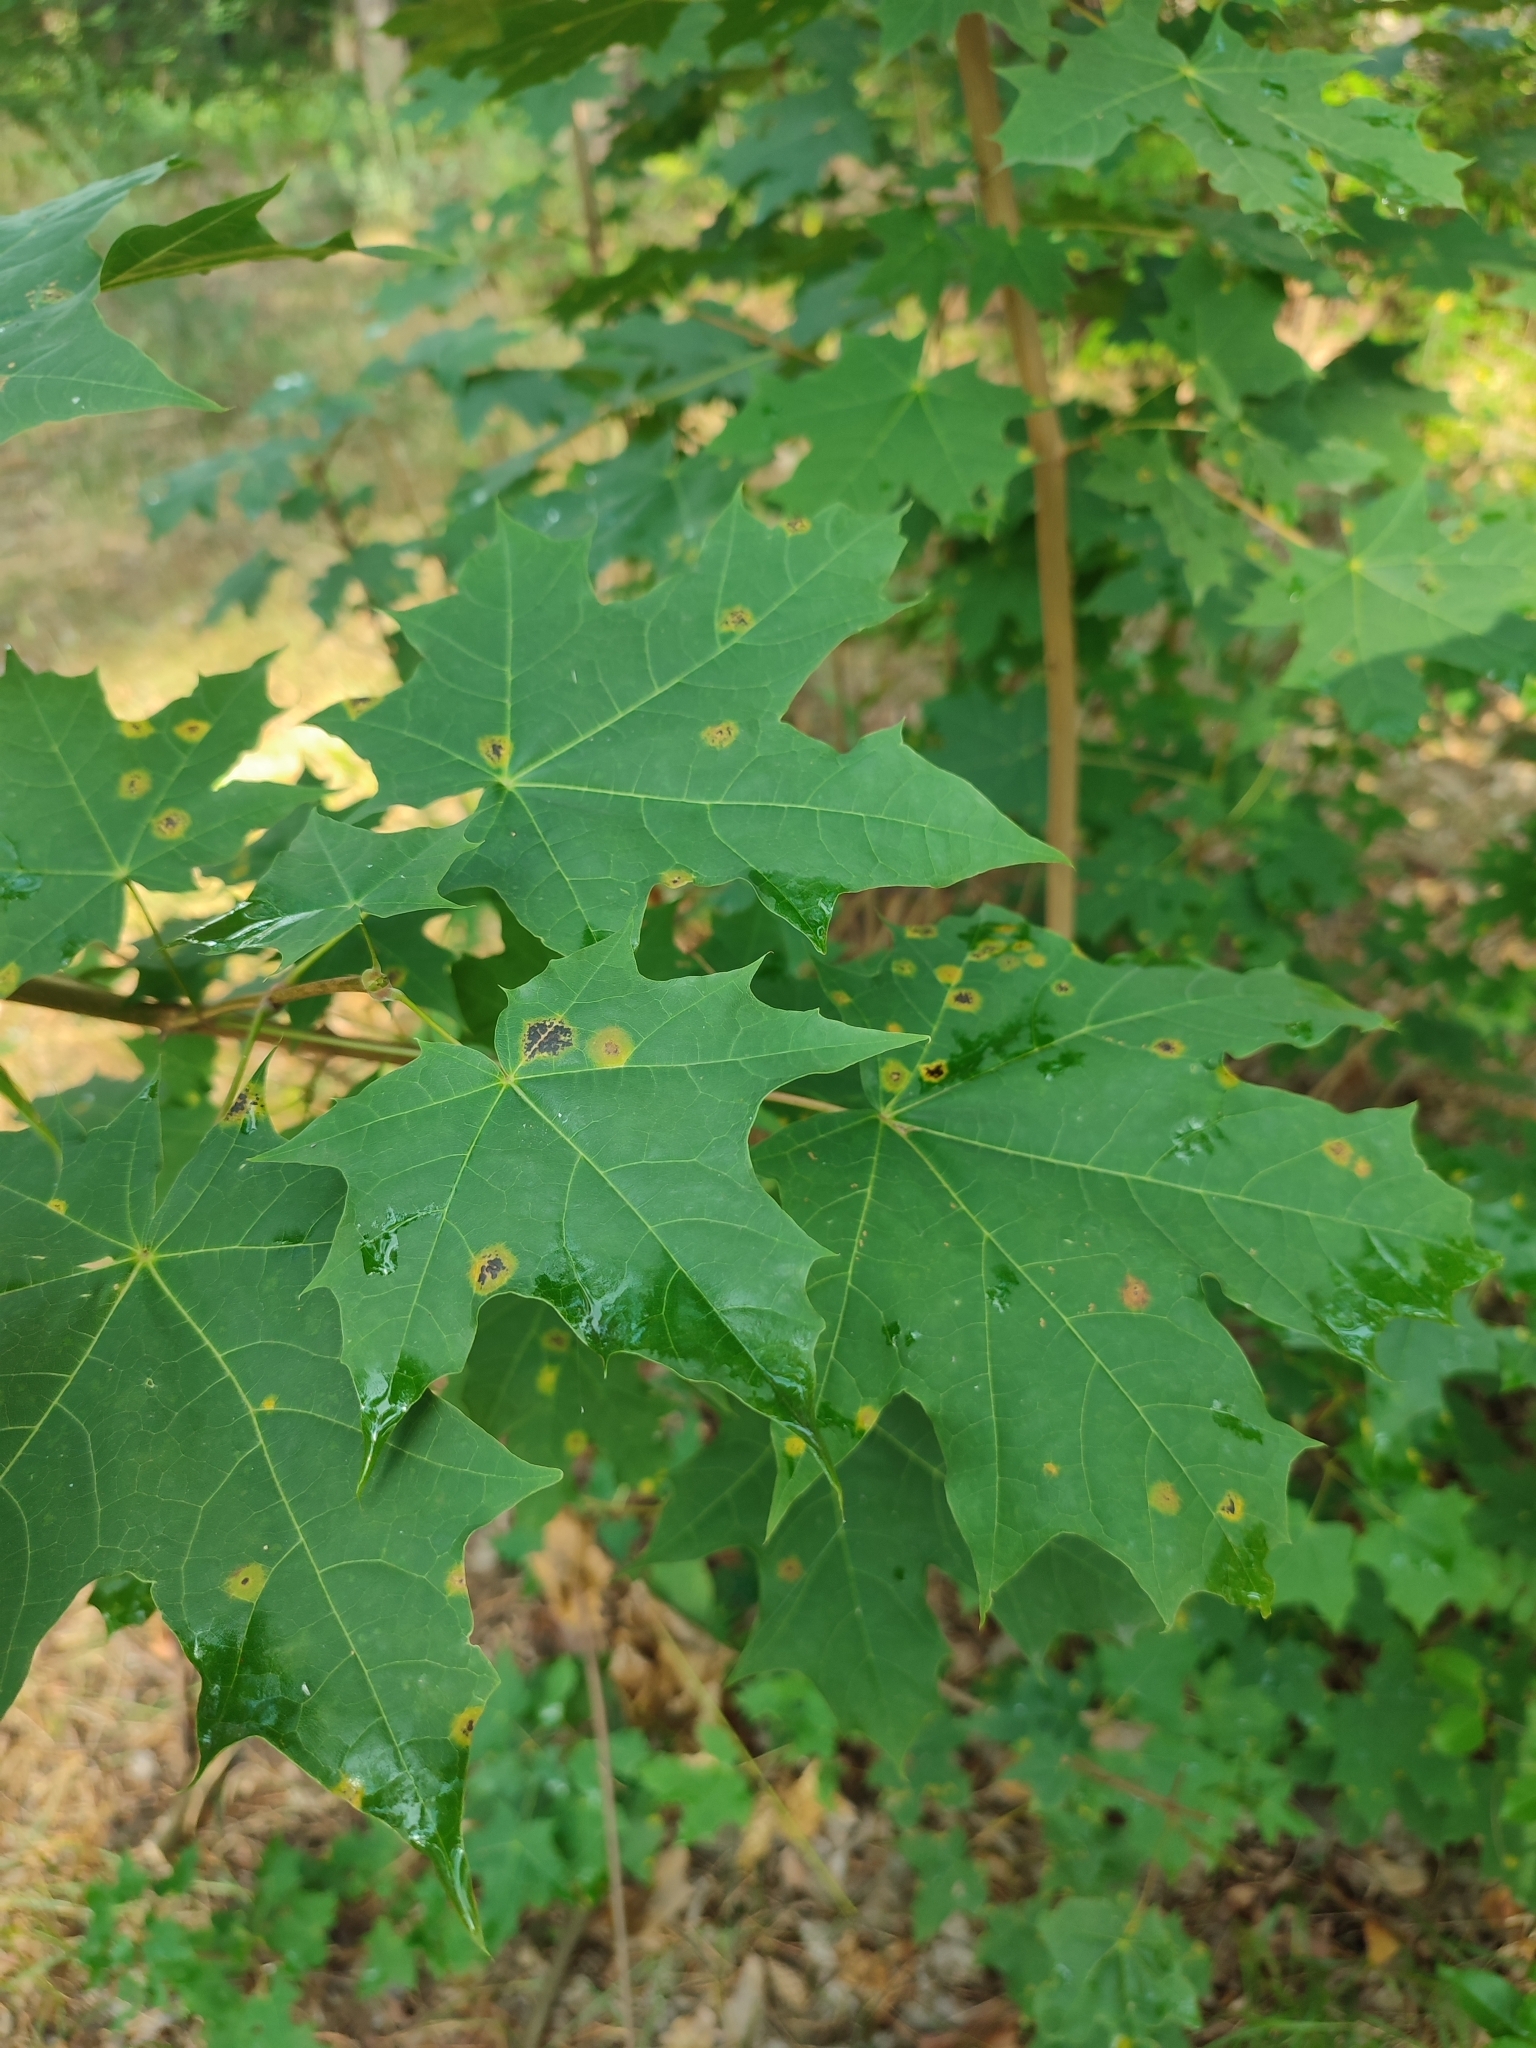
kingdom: Plantae
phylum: Tracheophyta
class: Magnoliopsida
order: Sapindales
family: Sapindaceae
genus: Acer
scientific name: Acer platanoides
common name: Norway maple
